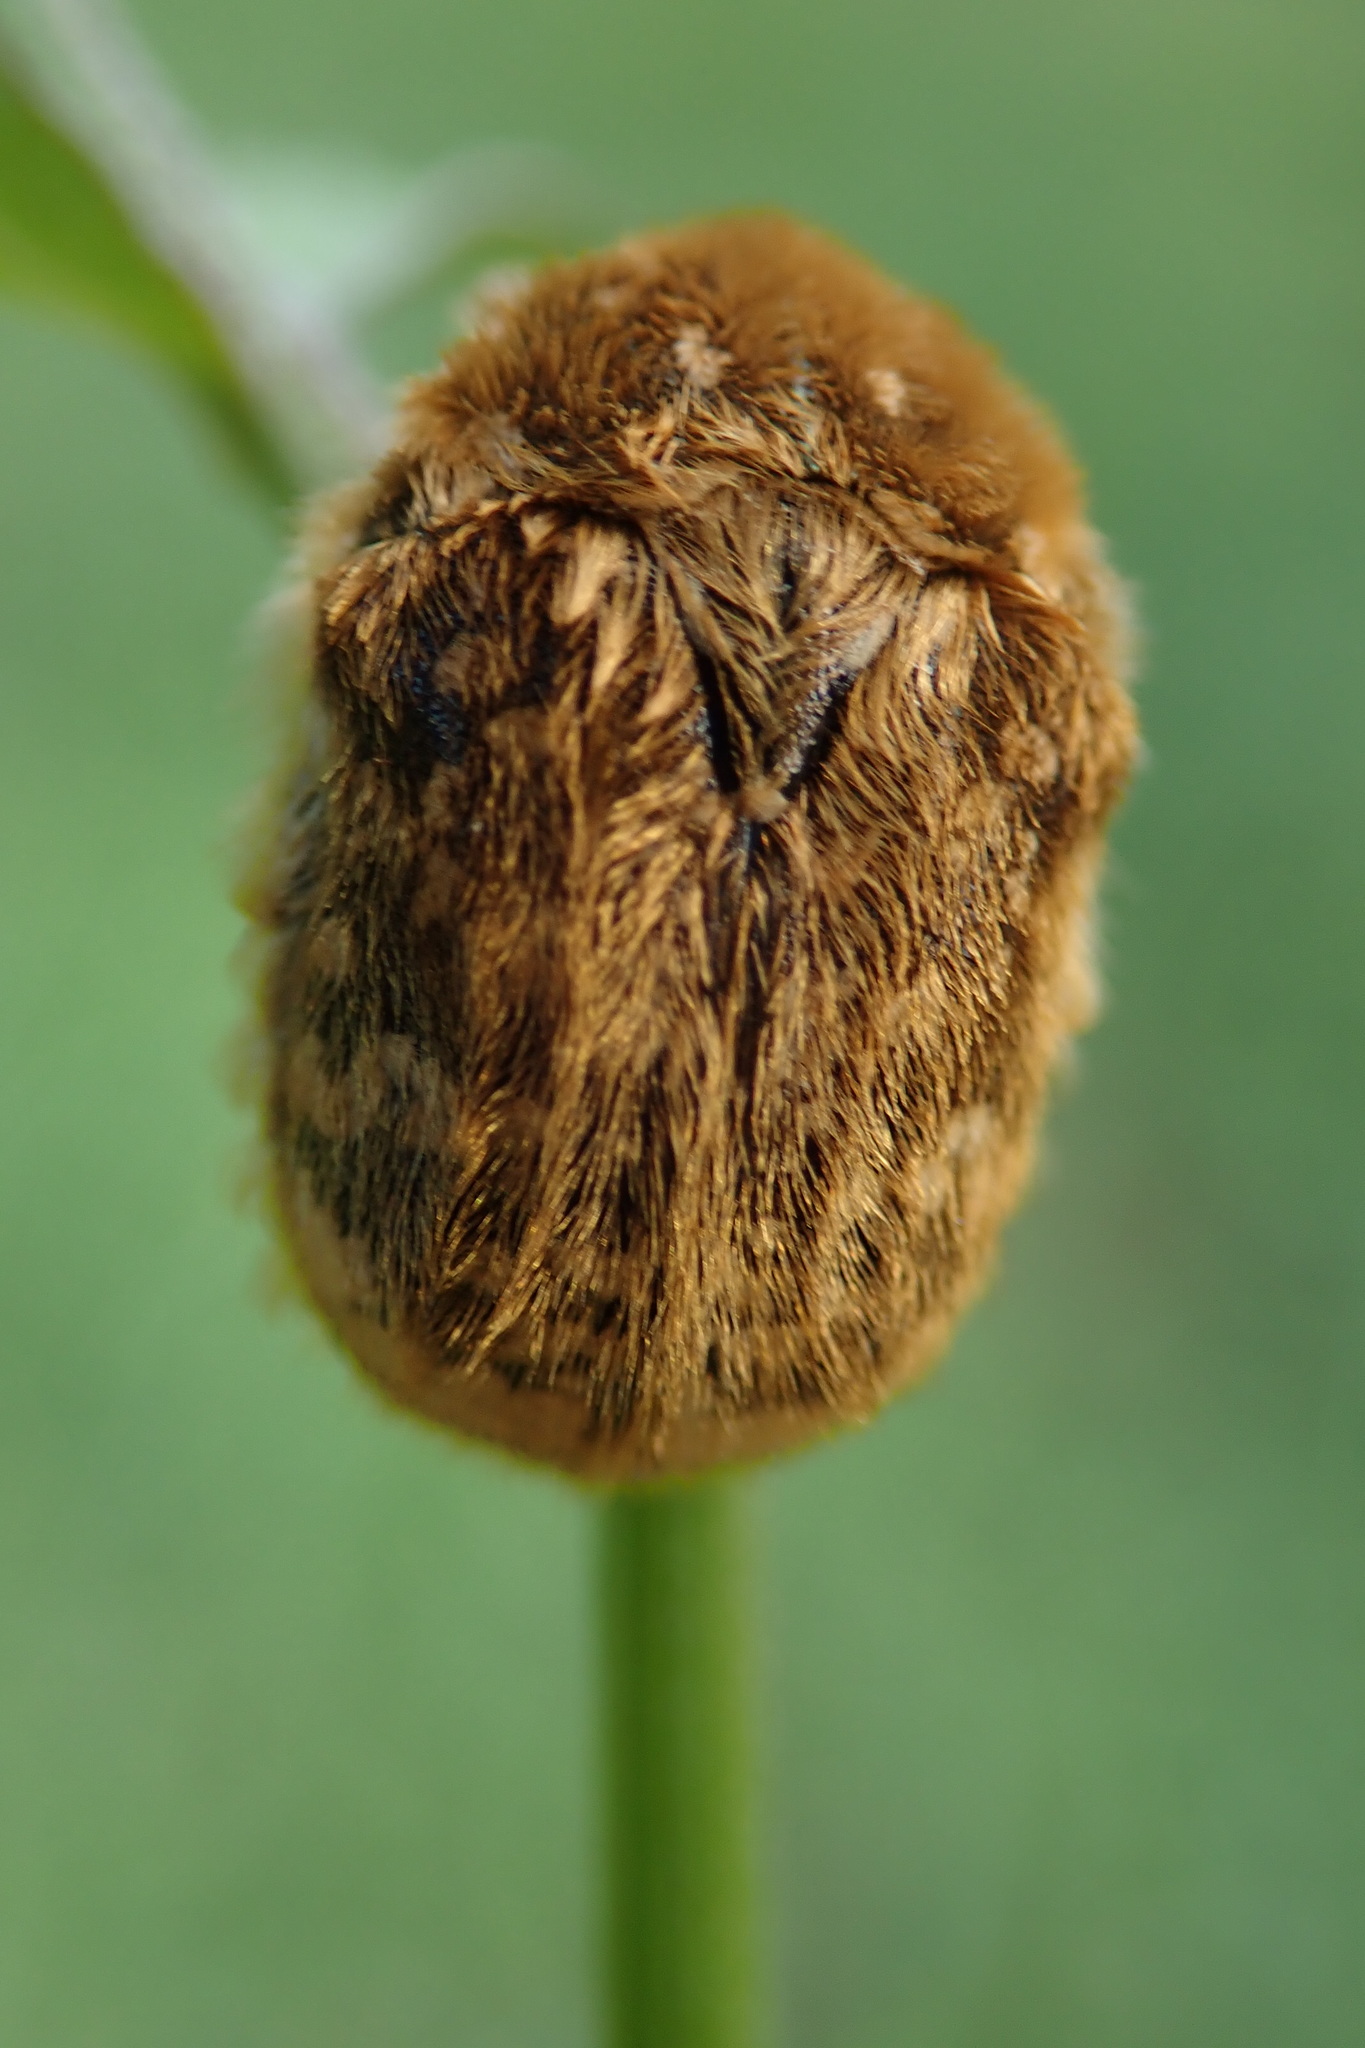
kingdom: Animalia
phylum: Arthropoda
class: Insecta
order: Coleoptera
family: Scarabaeidae
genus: Xeloma
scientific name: Xeloma tomentosa
